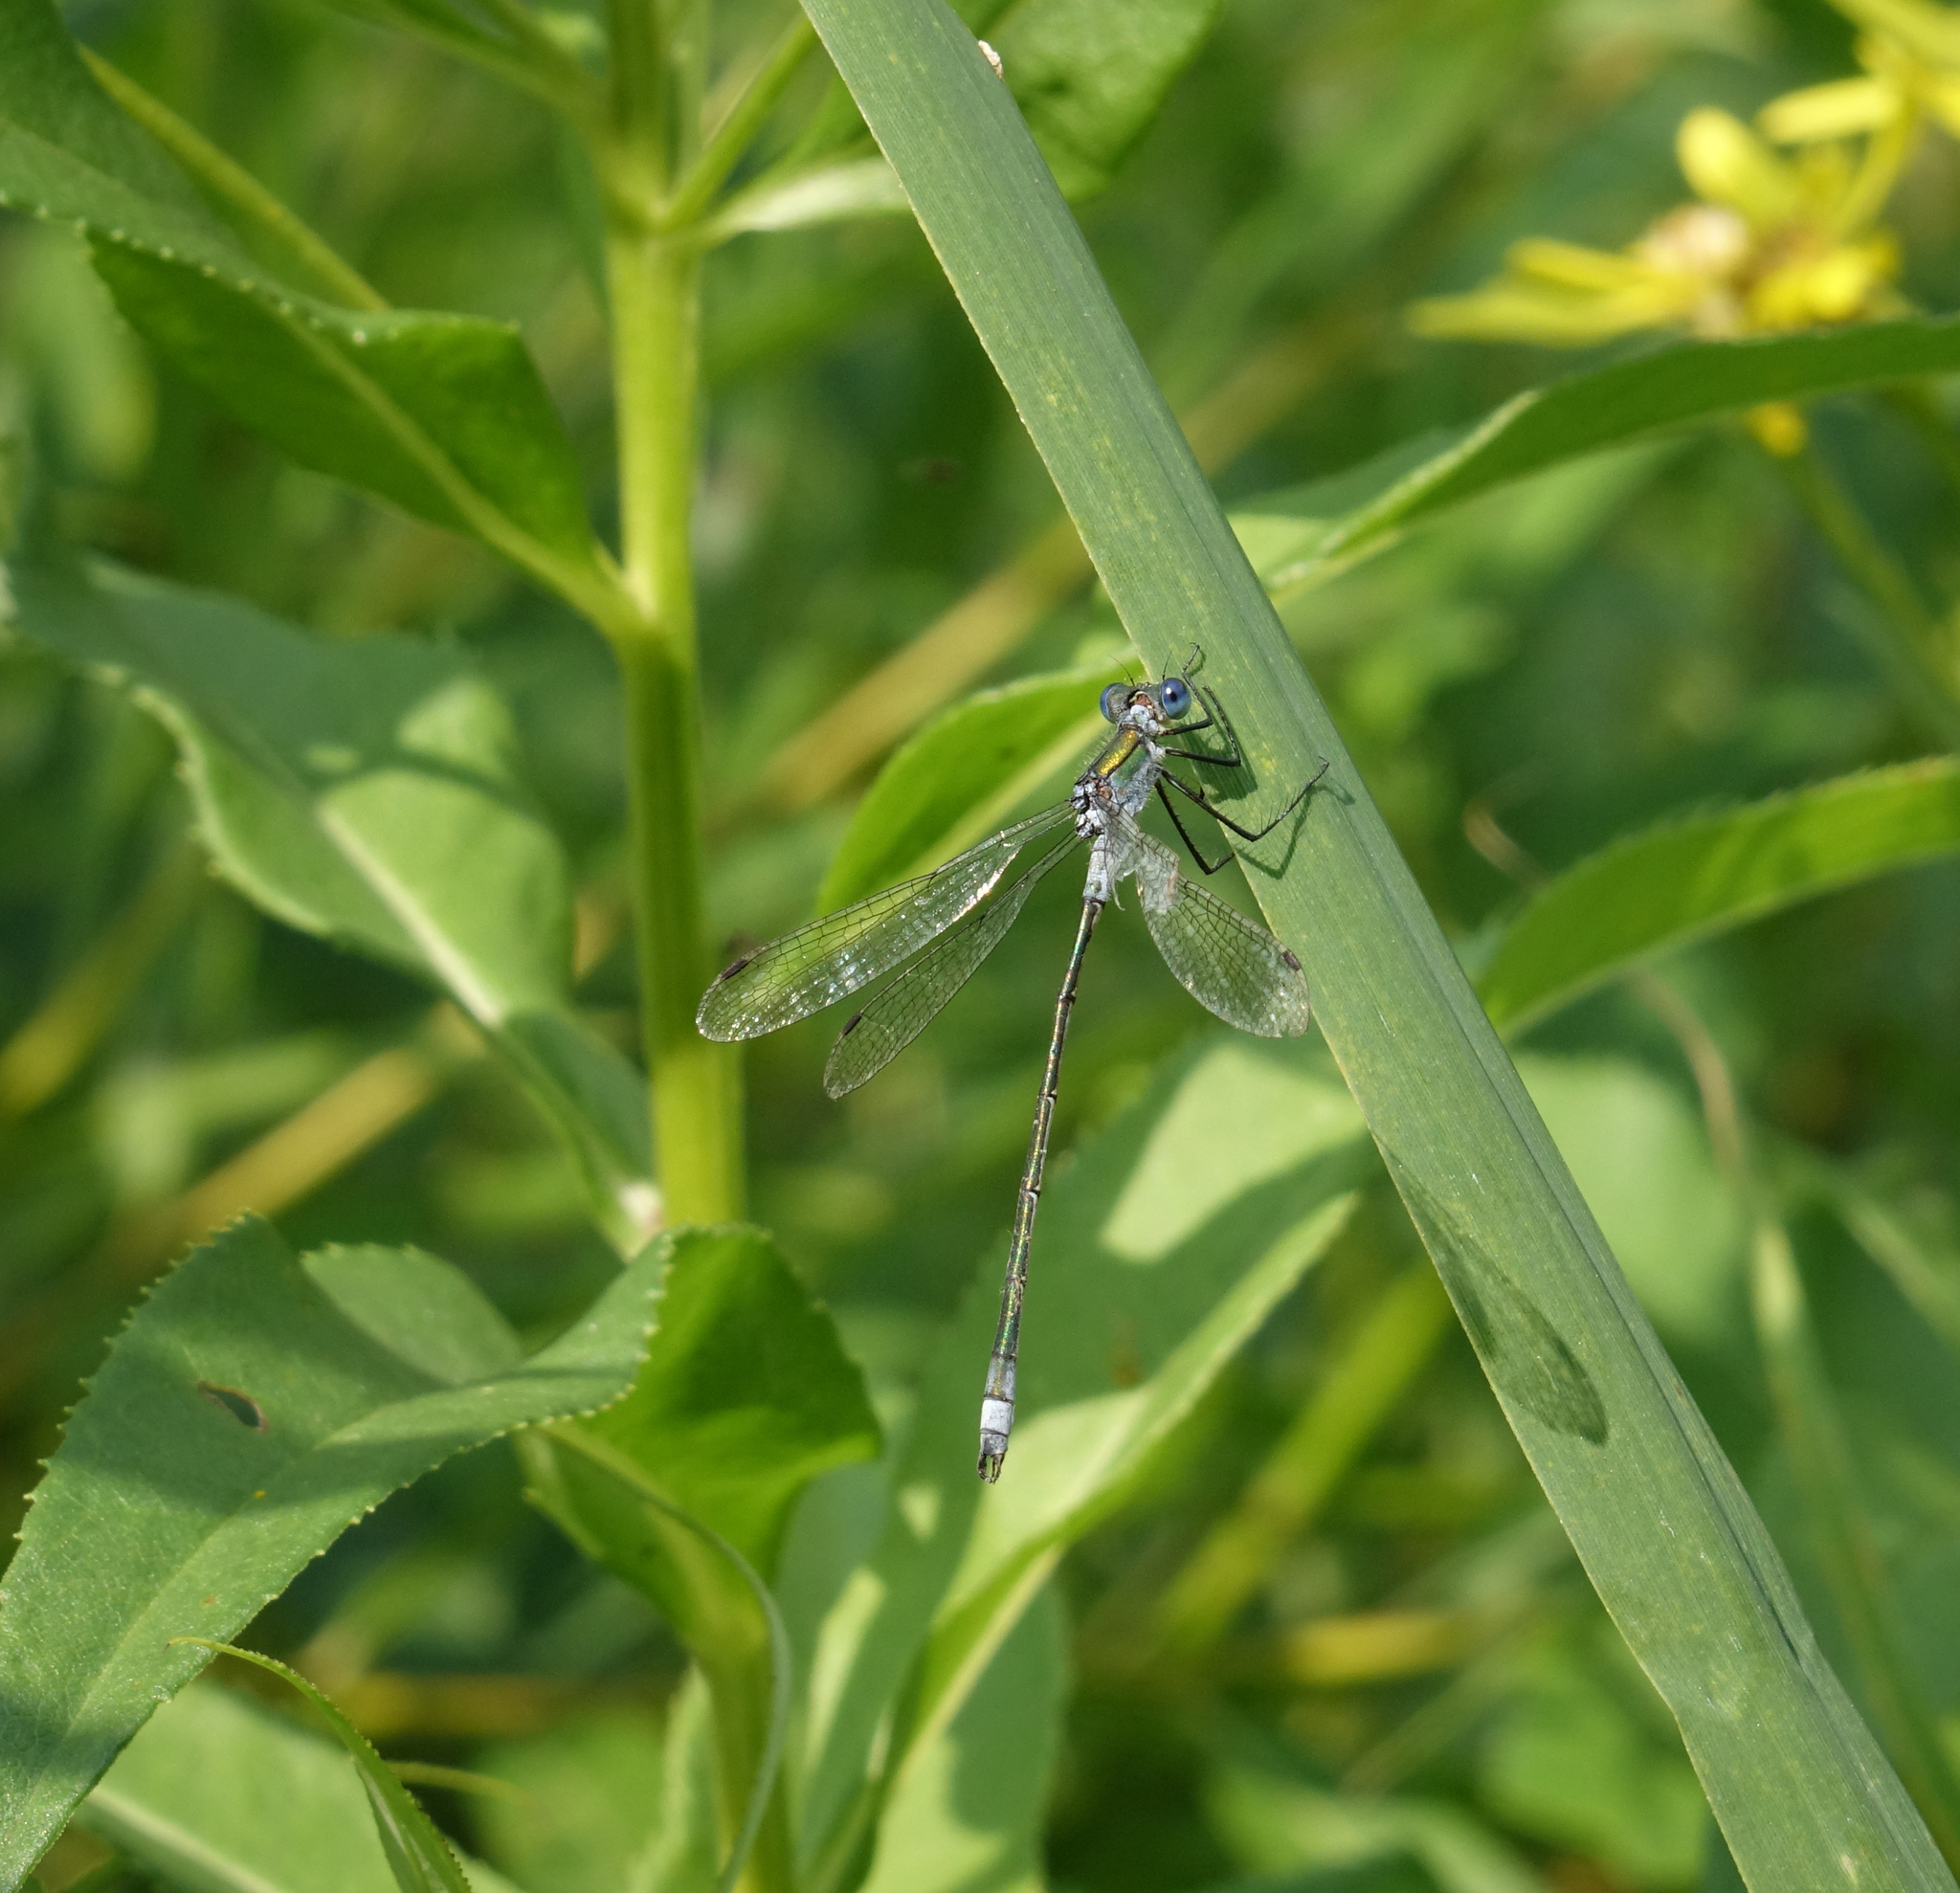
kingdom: Animalia
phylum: Arthropoda
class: Insecta
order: Odonata
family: Lestidae
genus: Lestes
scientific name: Lestes sponsa
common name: Common spreadwing
